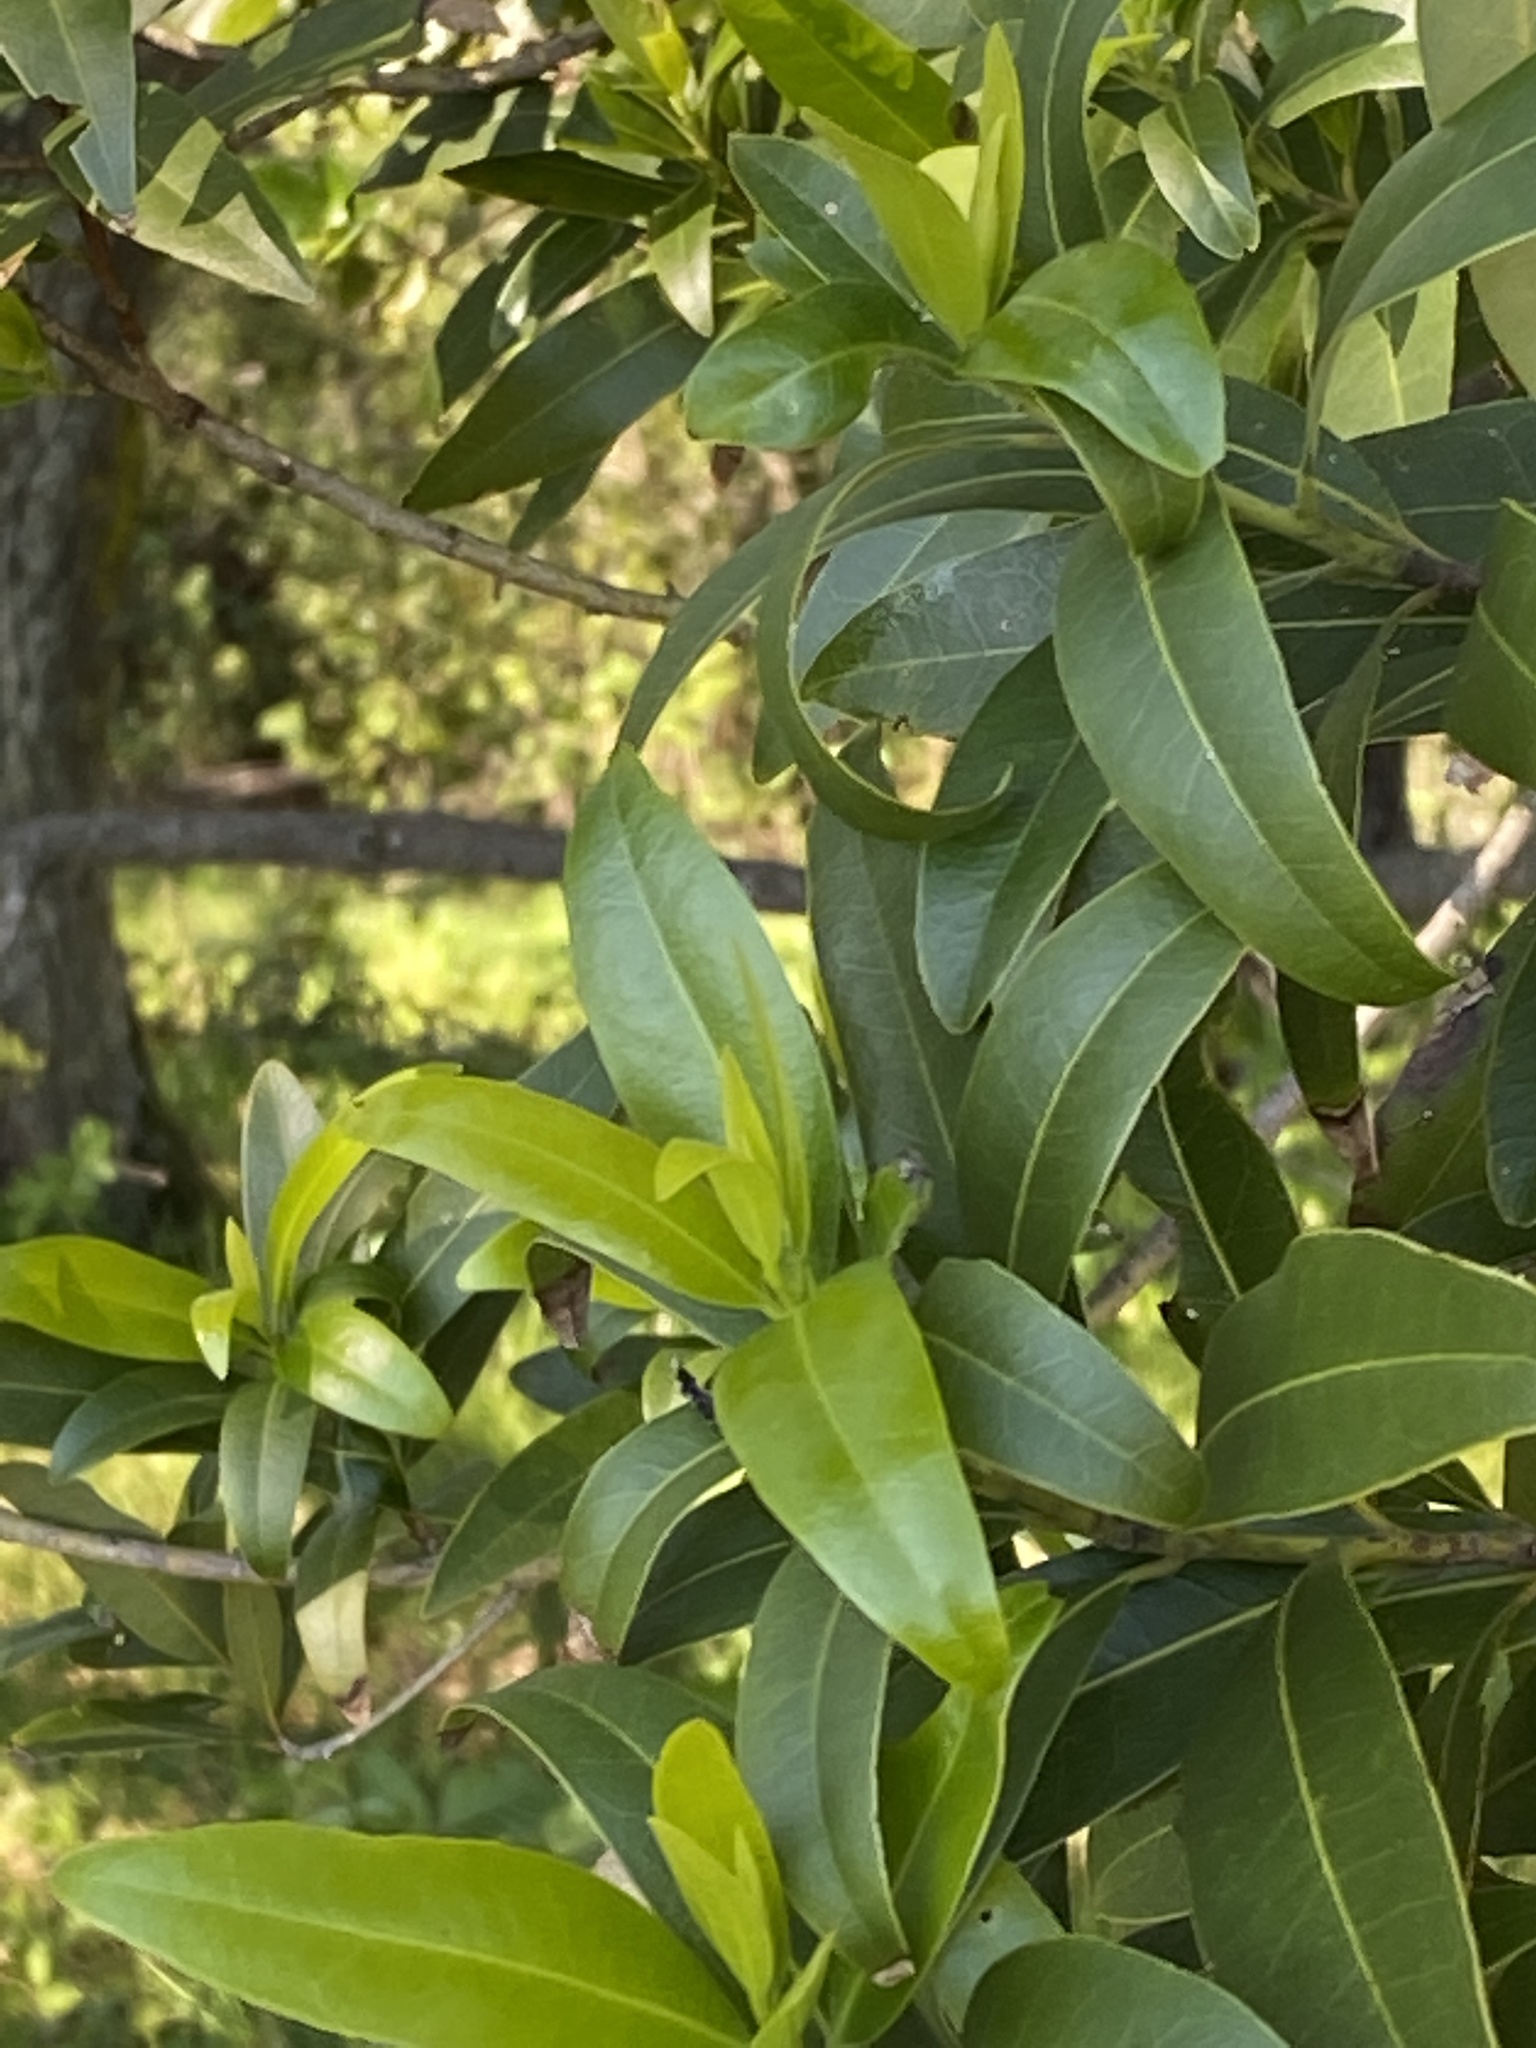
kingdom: Plantae
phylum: Tracheophyta
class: Magnoliopsida
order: Laurales
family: Lauraceae
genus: Umbellularia
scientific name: Umbellularia californica
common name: California bay
